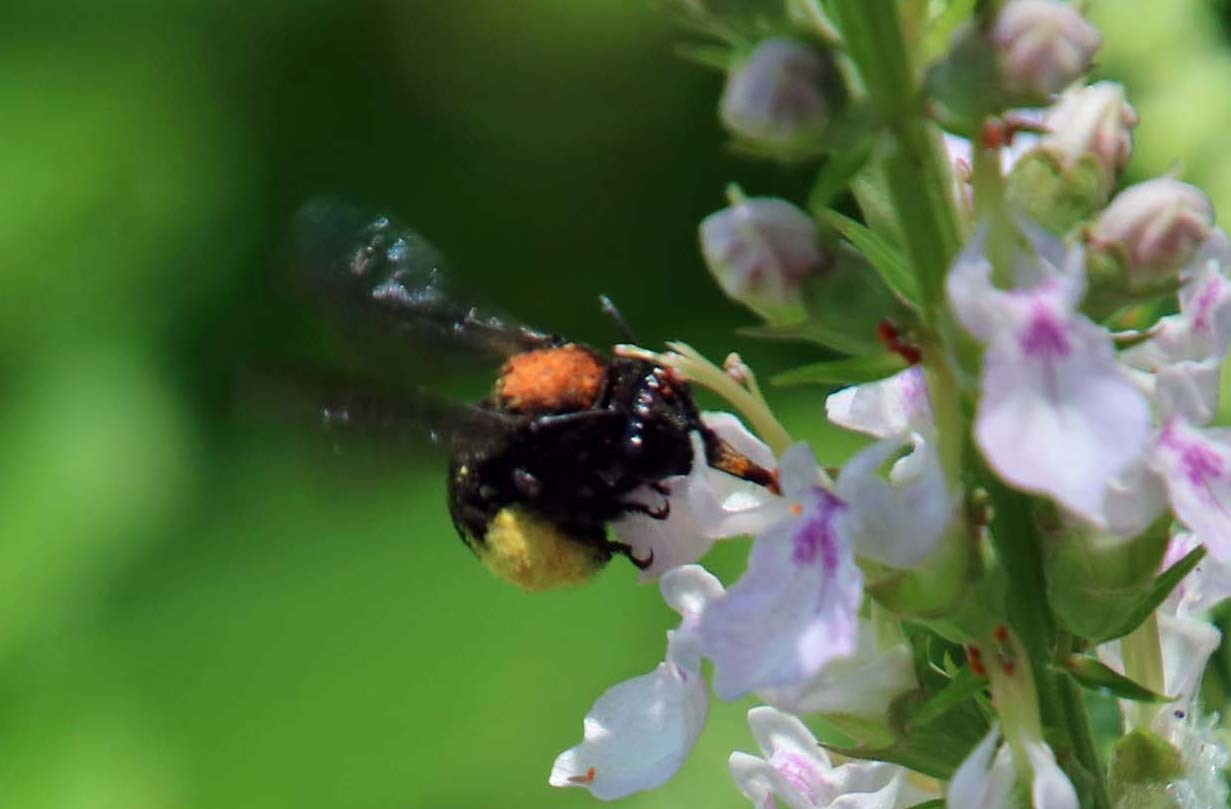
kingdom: Animalia
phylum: Arthropoda
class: Insecta
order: Hymenoptera
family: Apidae
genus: Melissodes
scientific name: Melissodes bimaculatus
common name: Two-spotted long-horned bee
